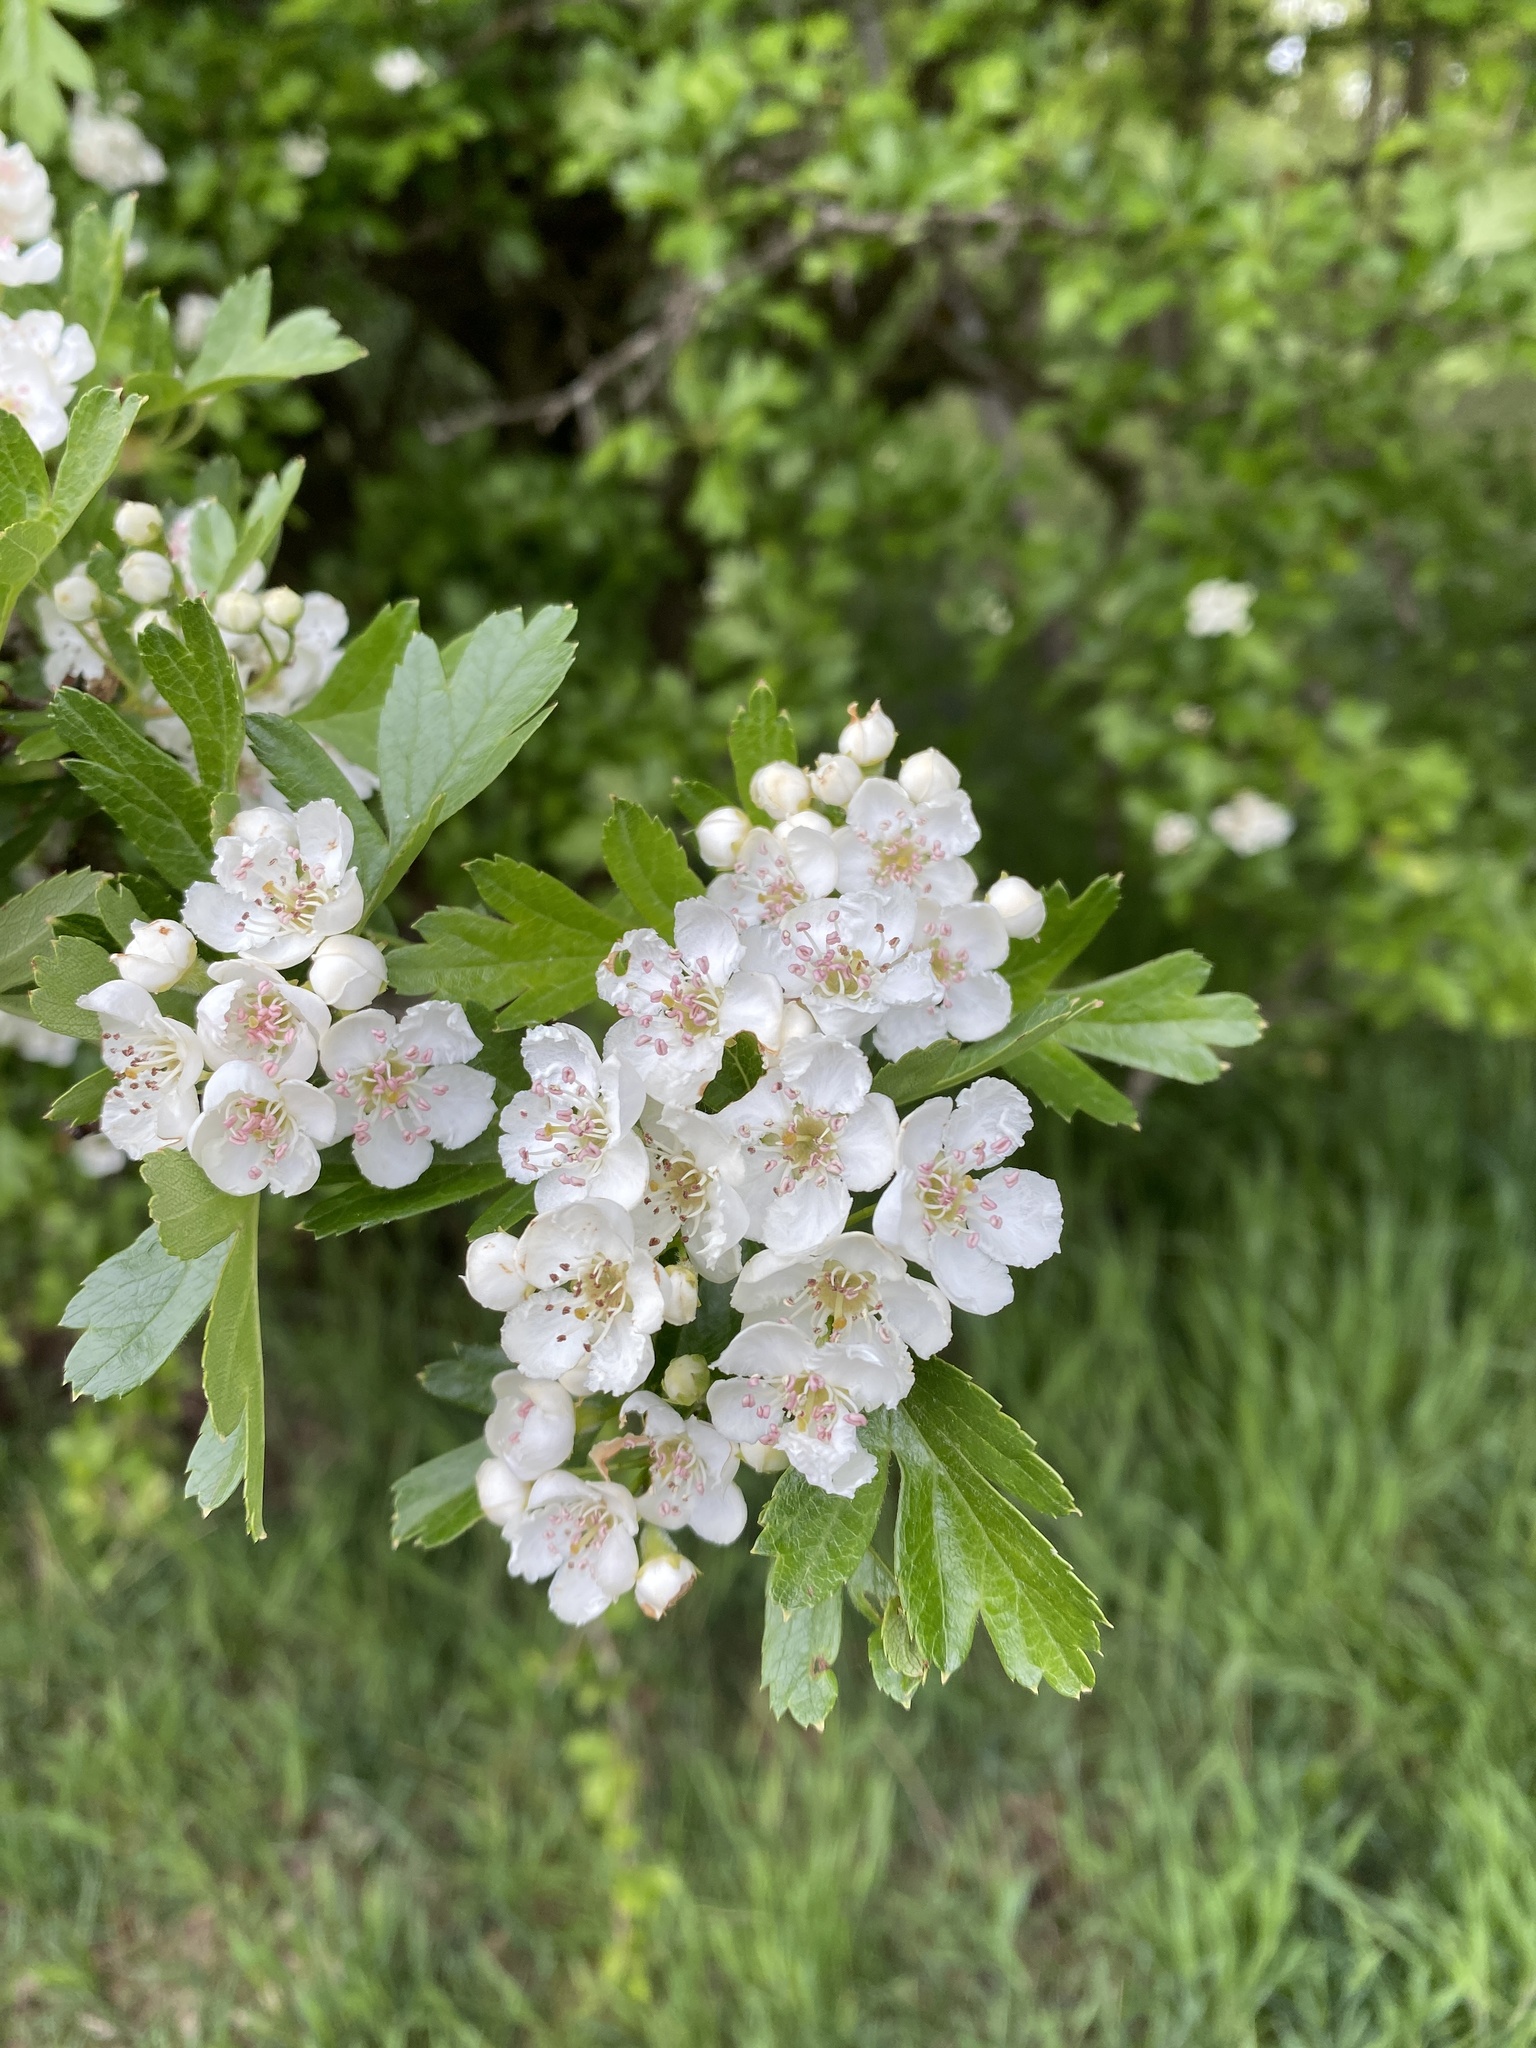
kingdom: Plantae
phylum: Tracheophyta
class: Magnoliopsida
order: Rosales
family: Rosaceae
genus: Crataegus
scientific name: Crataegus monogyna
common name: Hawthorn
